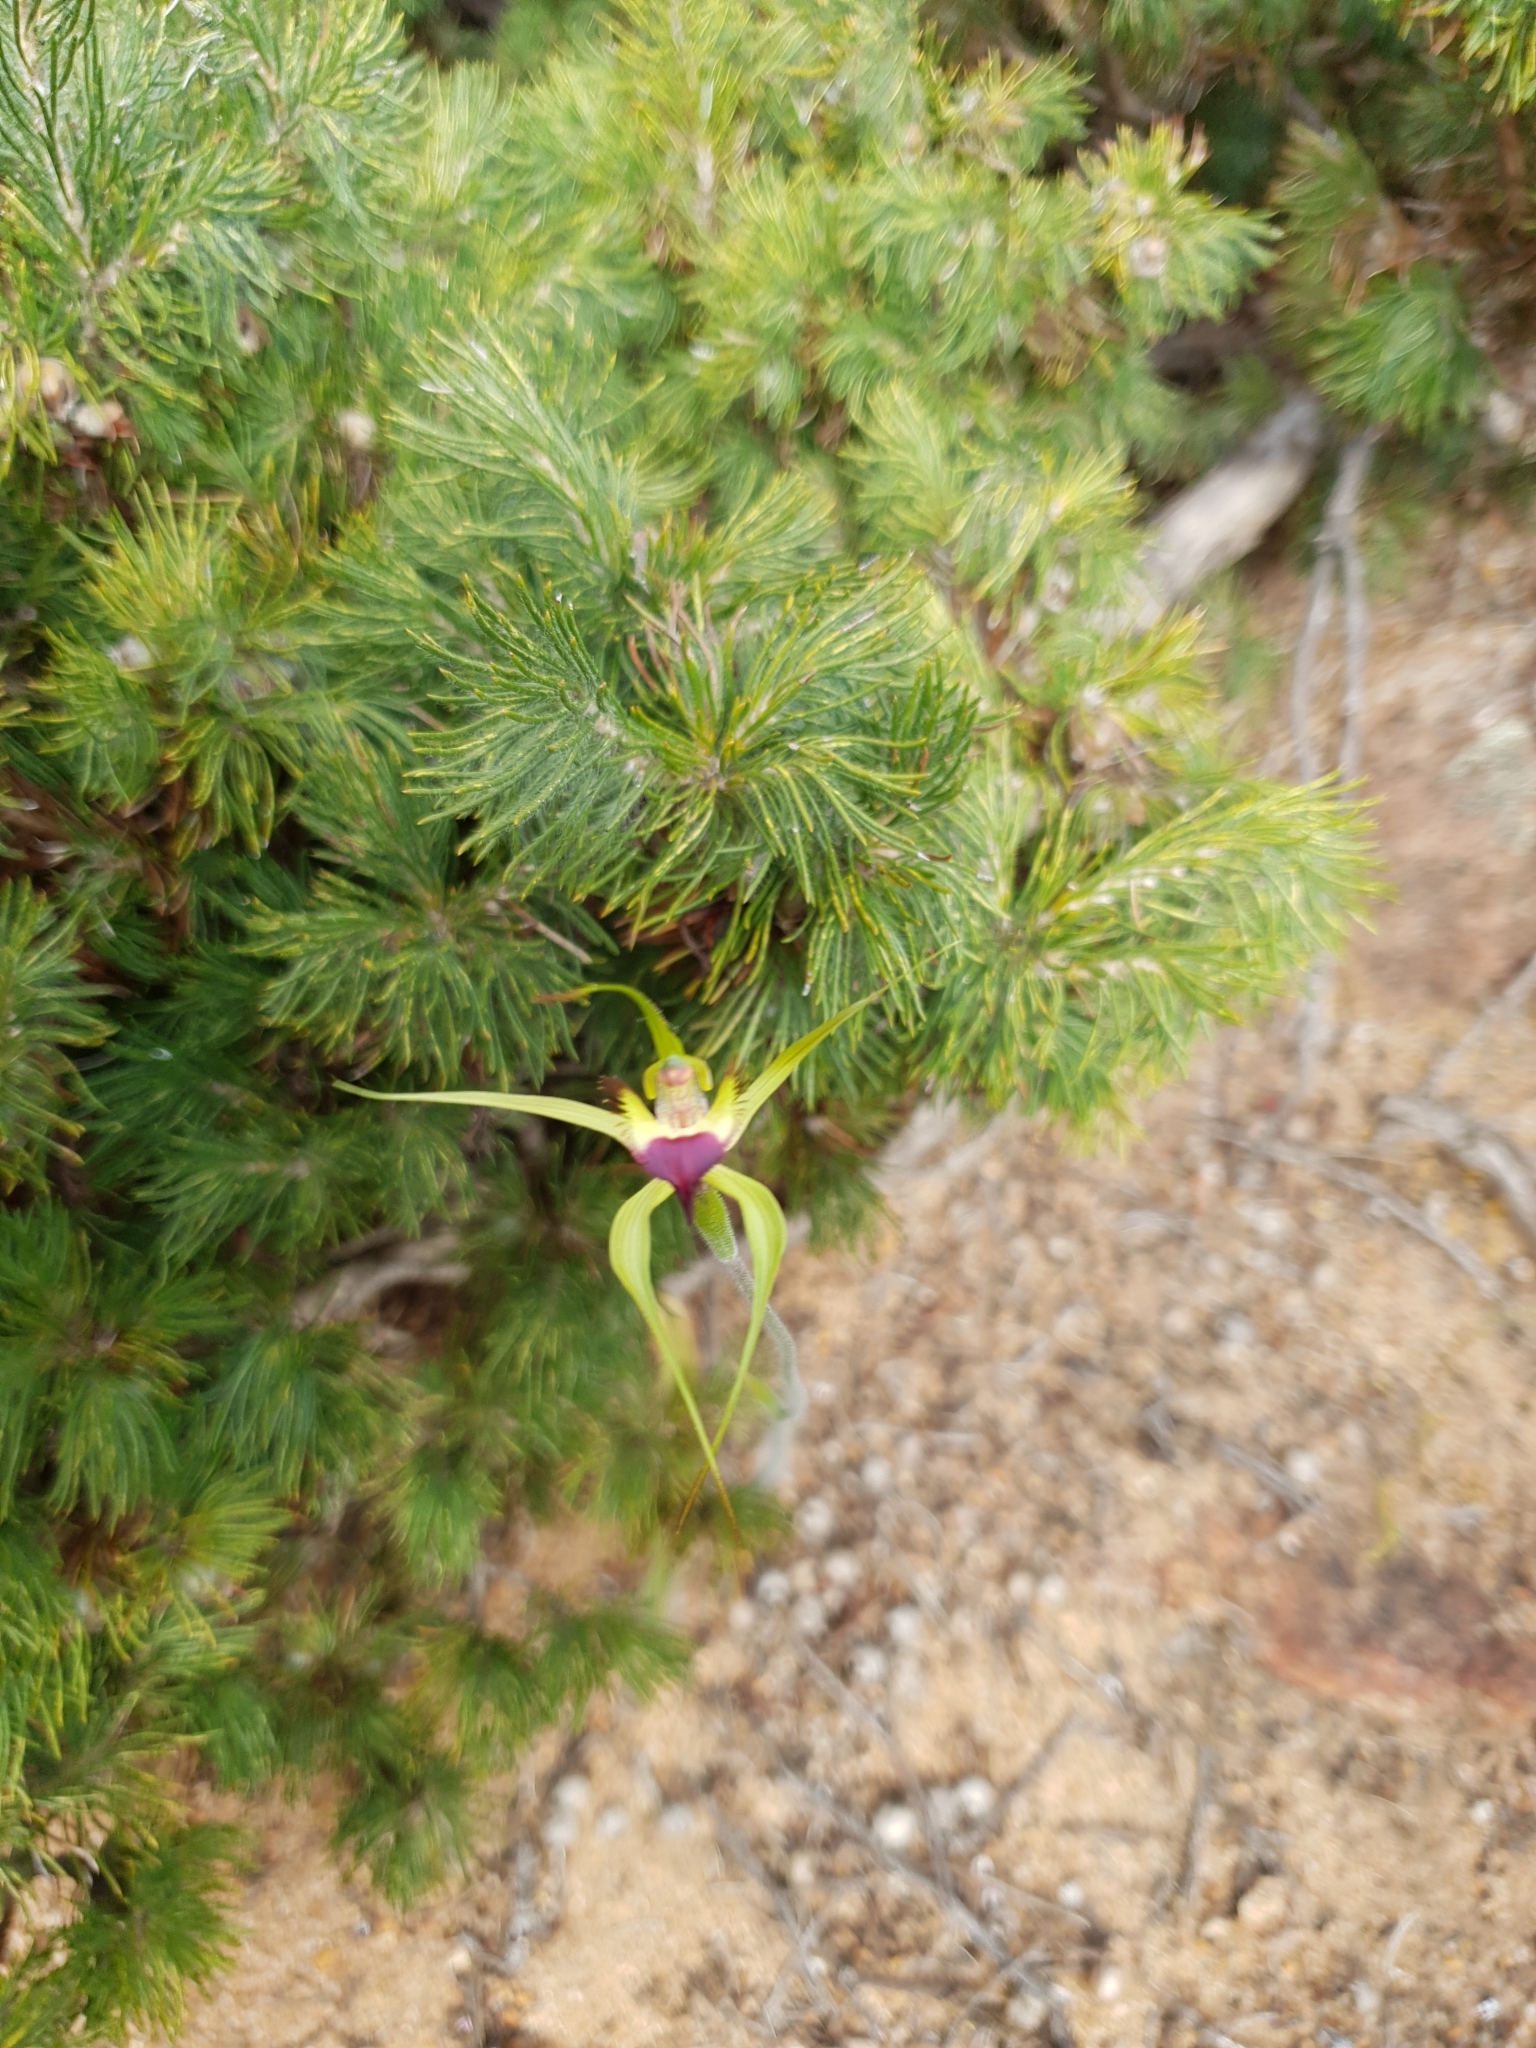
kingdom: Plantae
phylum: Tracheophyta
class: Liliopsida
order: Asparagales
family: Orchidaceae
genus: Caladenia
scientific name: Caladenia infundibularis
